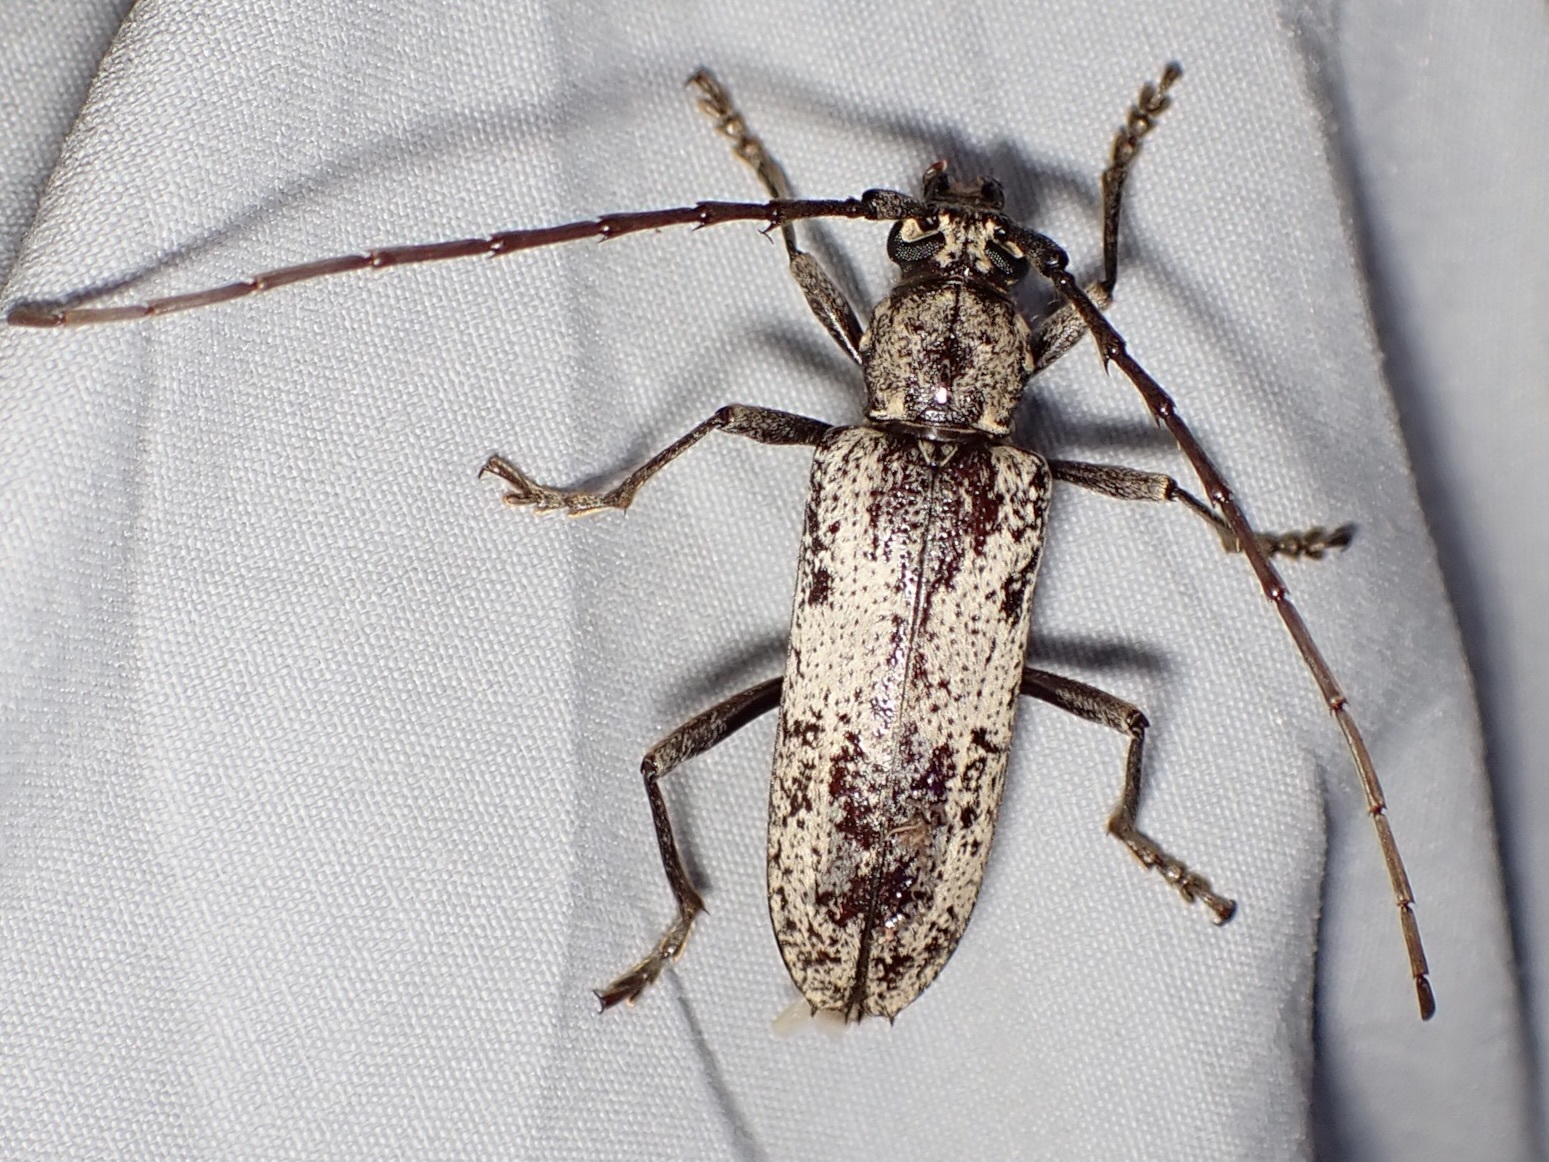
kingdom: Animalia
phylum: Arthropoda
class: Insecta
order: Coleoptera
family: Cerambycidae
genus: Enaphalodes
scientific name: Enaphalodes niveitectus
